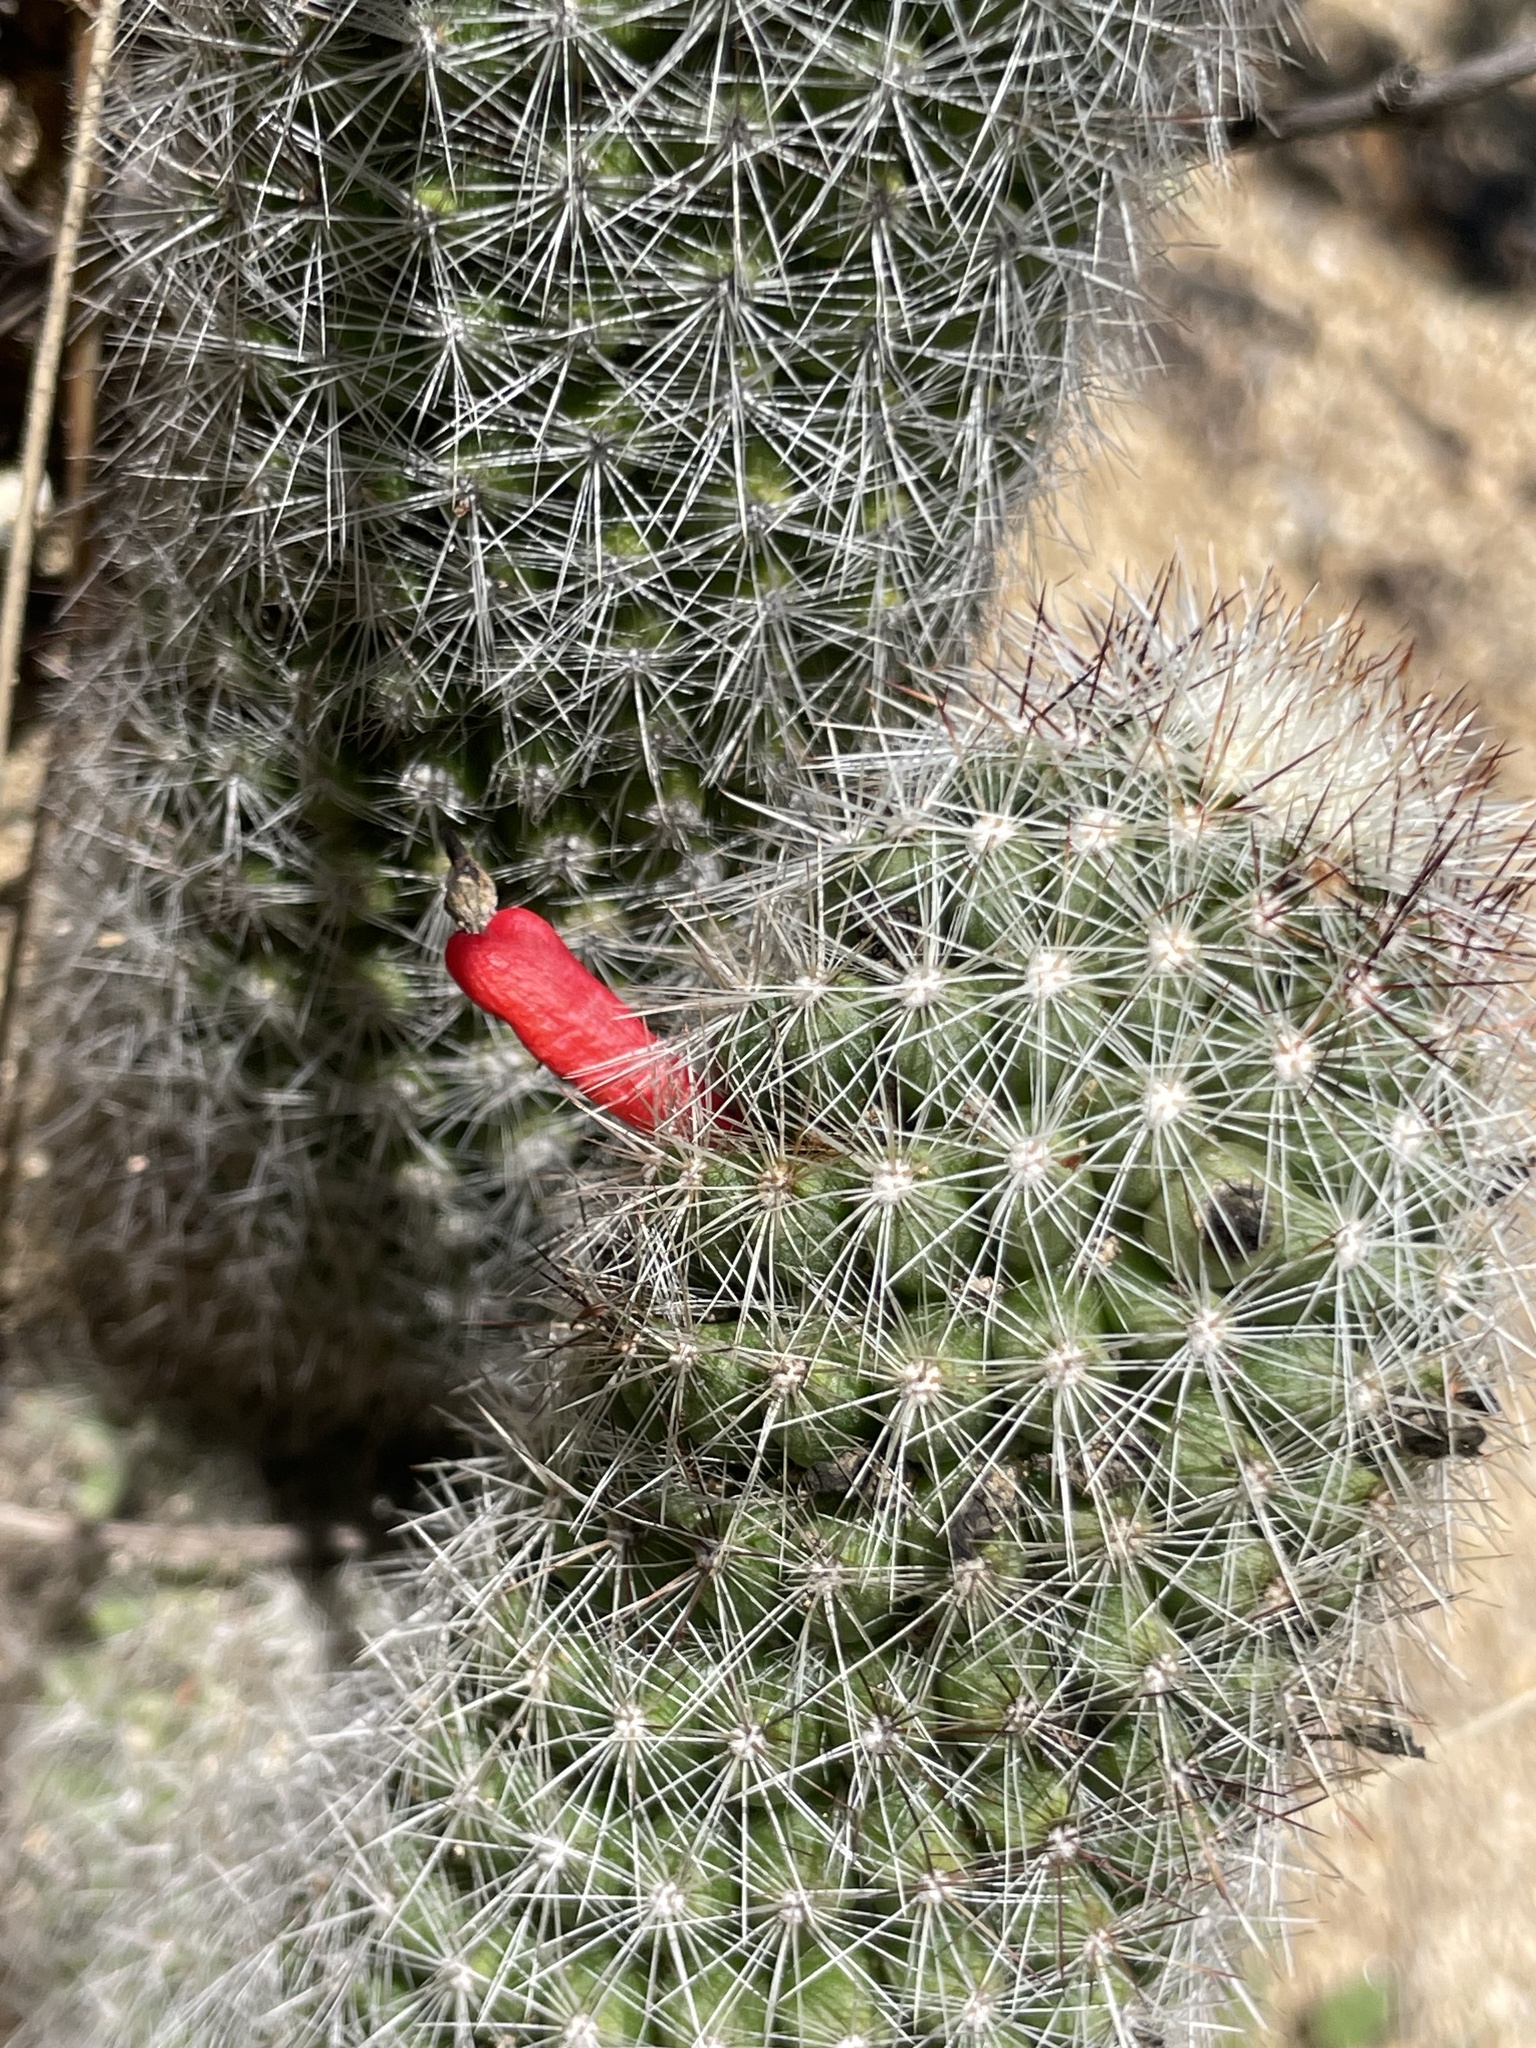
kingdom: Plantae
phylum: Tracheophyta
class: Magnoliopsida
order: Caryophyllales
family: Cactaceae
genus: Cochemiea
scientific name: Cochemiea phitauiana
